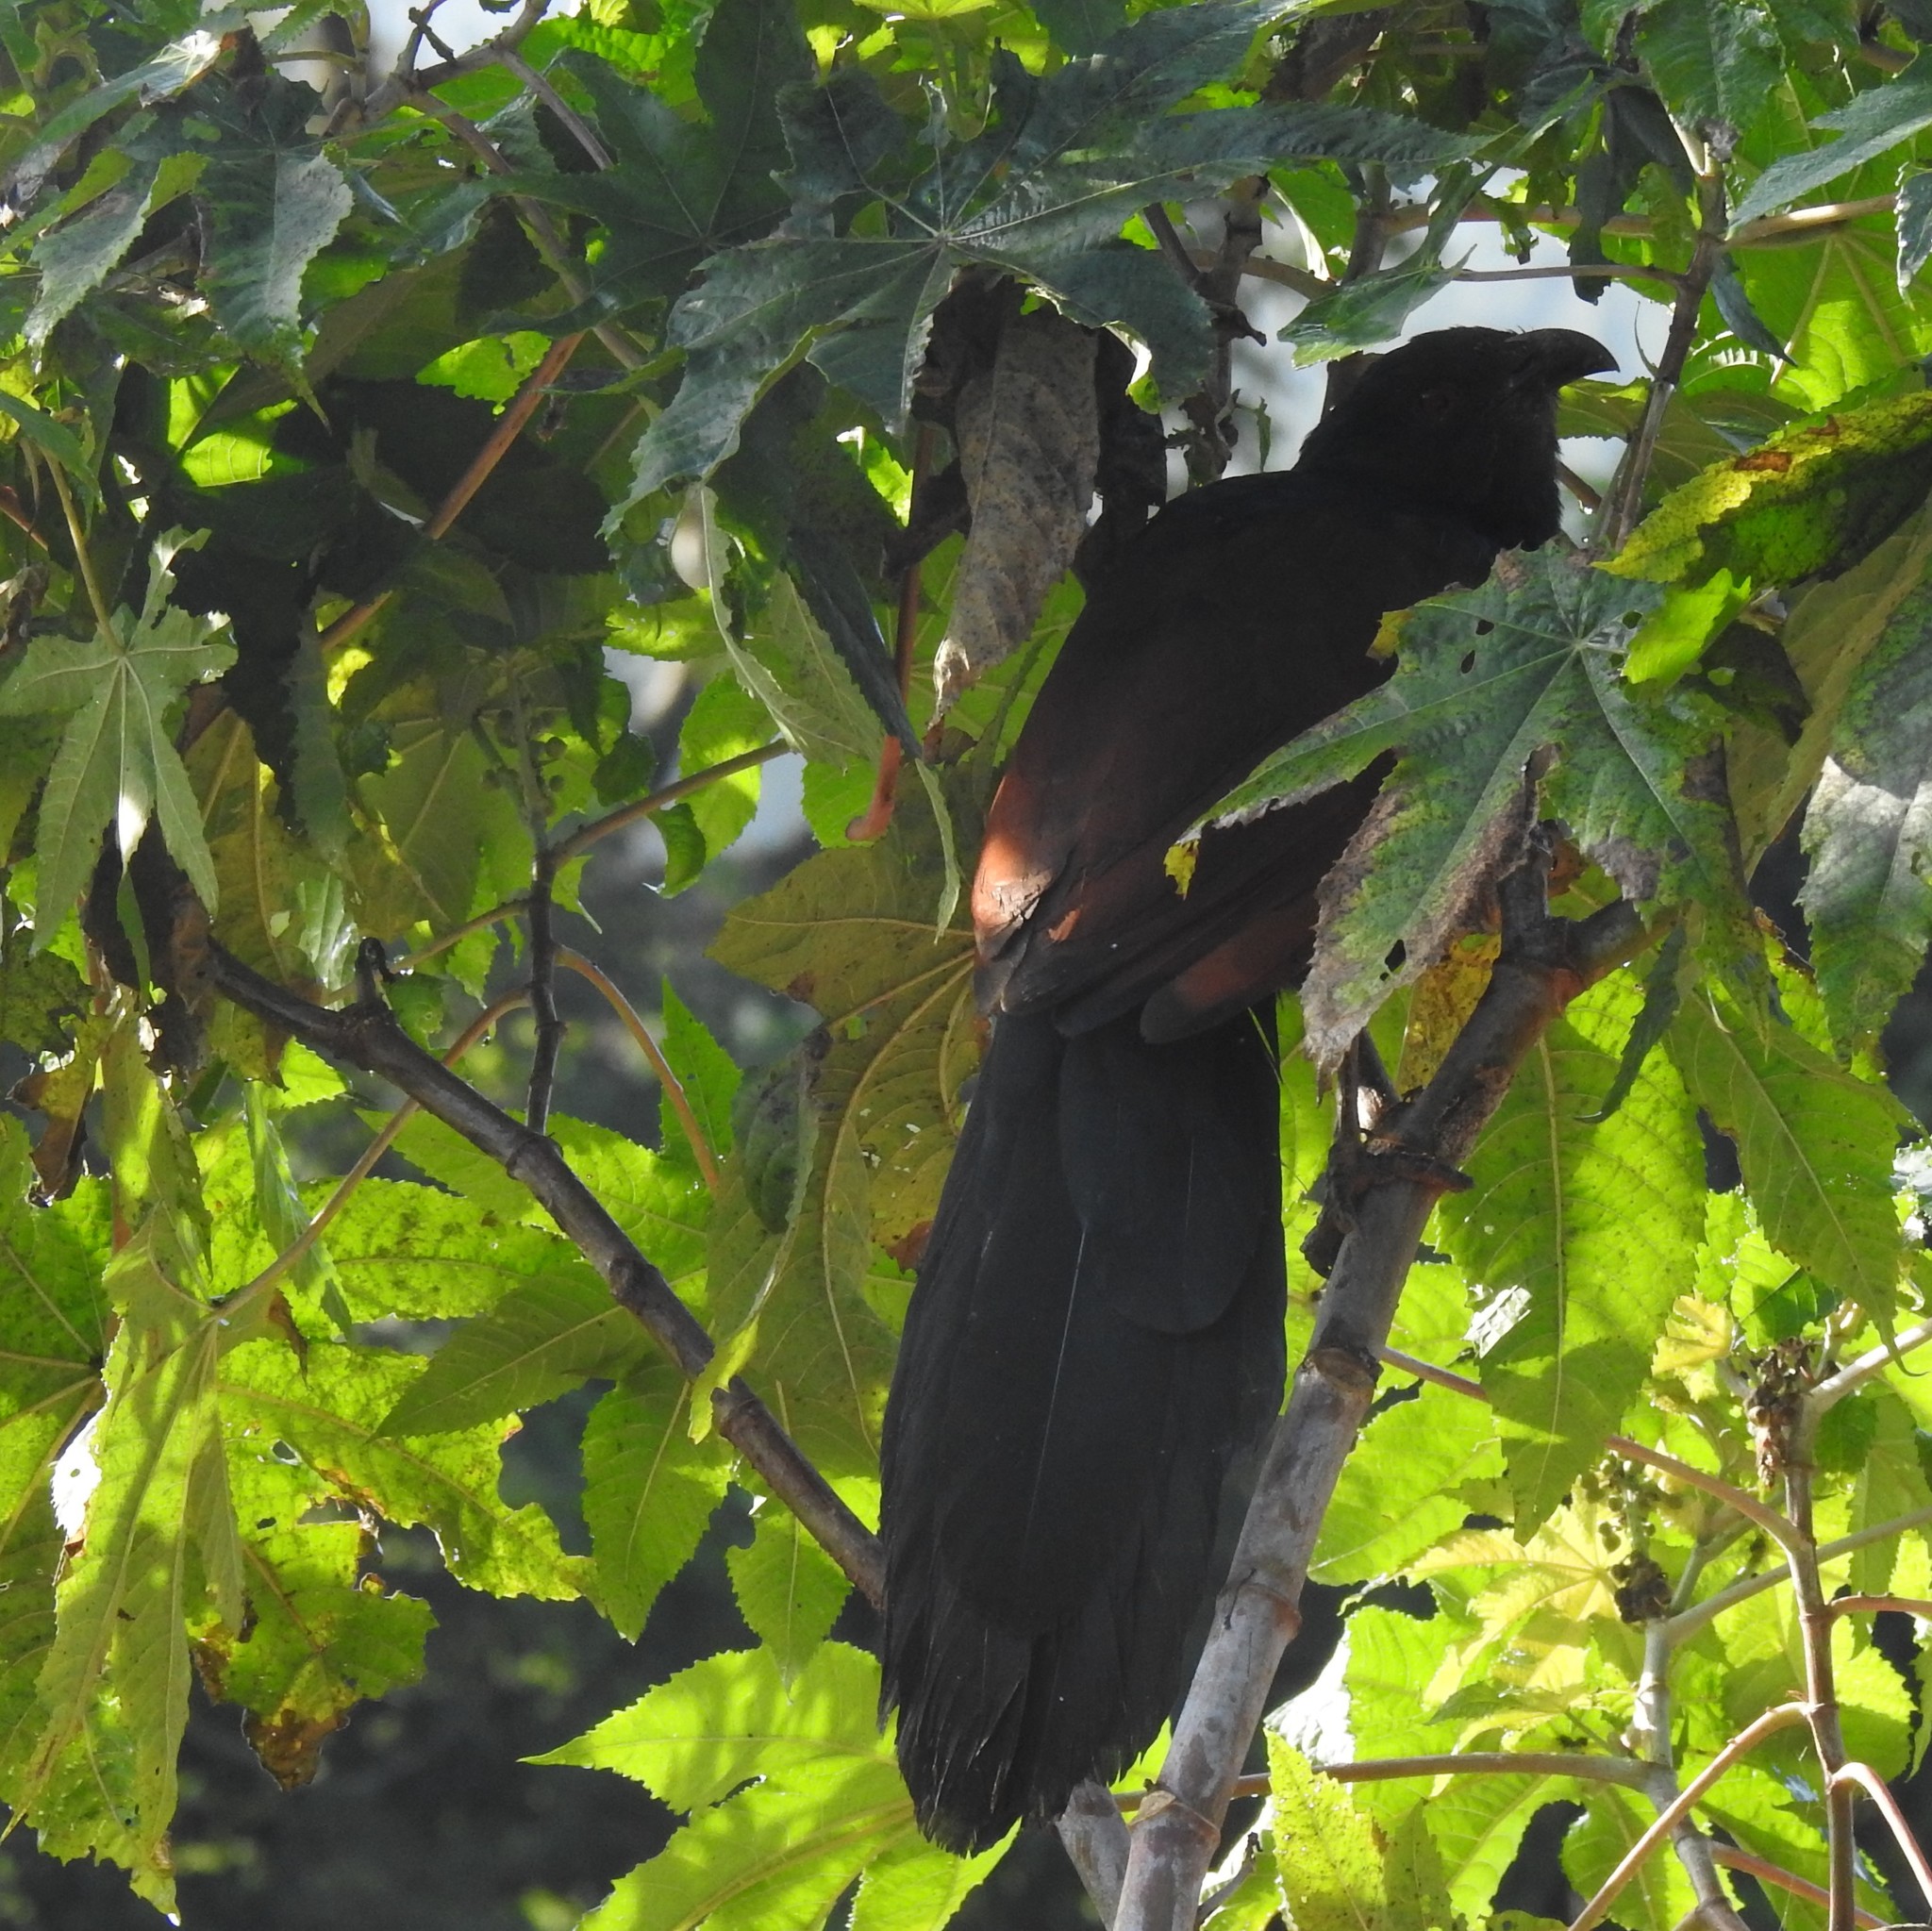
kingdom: Animalia
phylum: Chordata
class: Aves
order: Cuculiformes
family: Cuculidae
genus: Centropus
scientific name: Centropus sinensis
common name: Greater coucal
